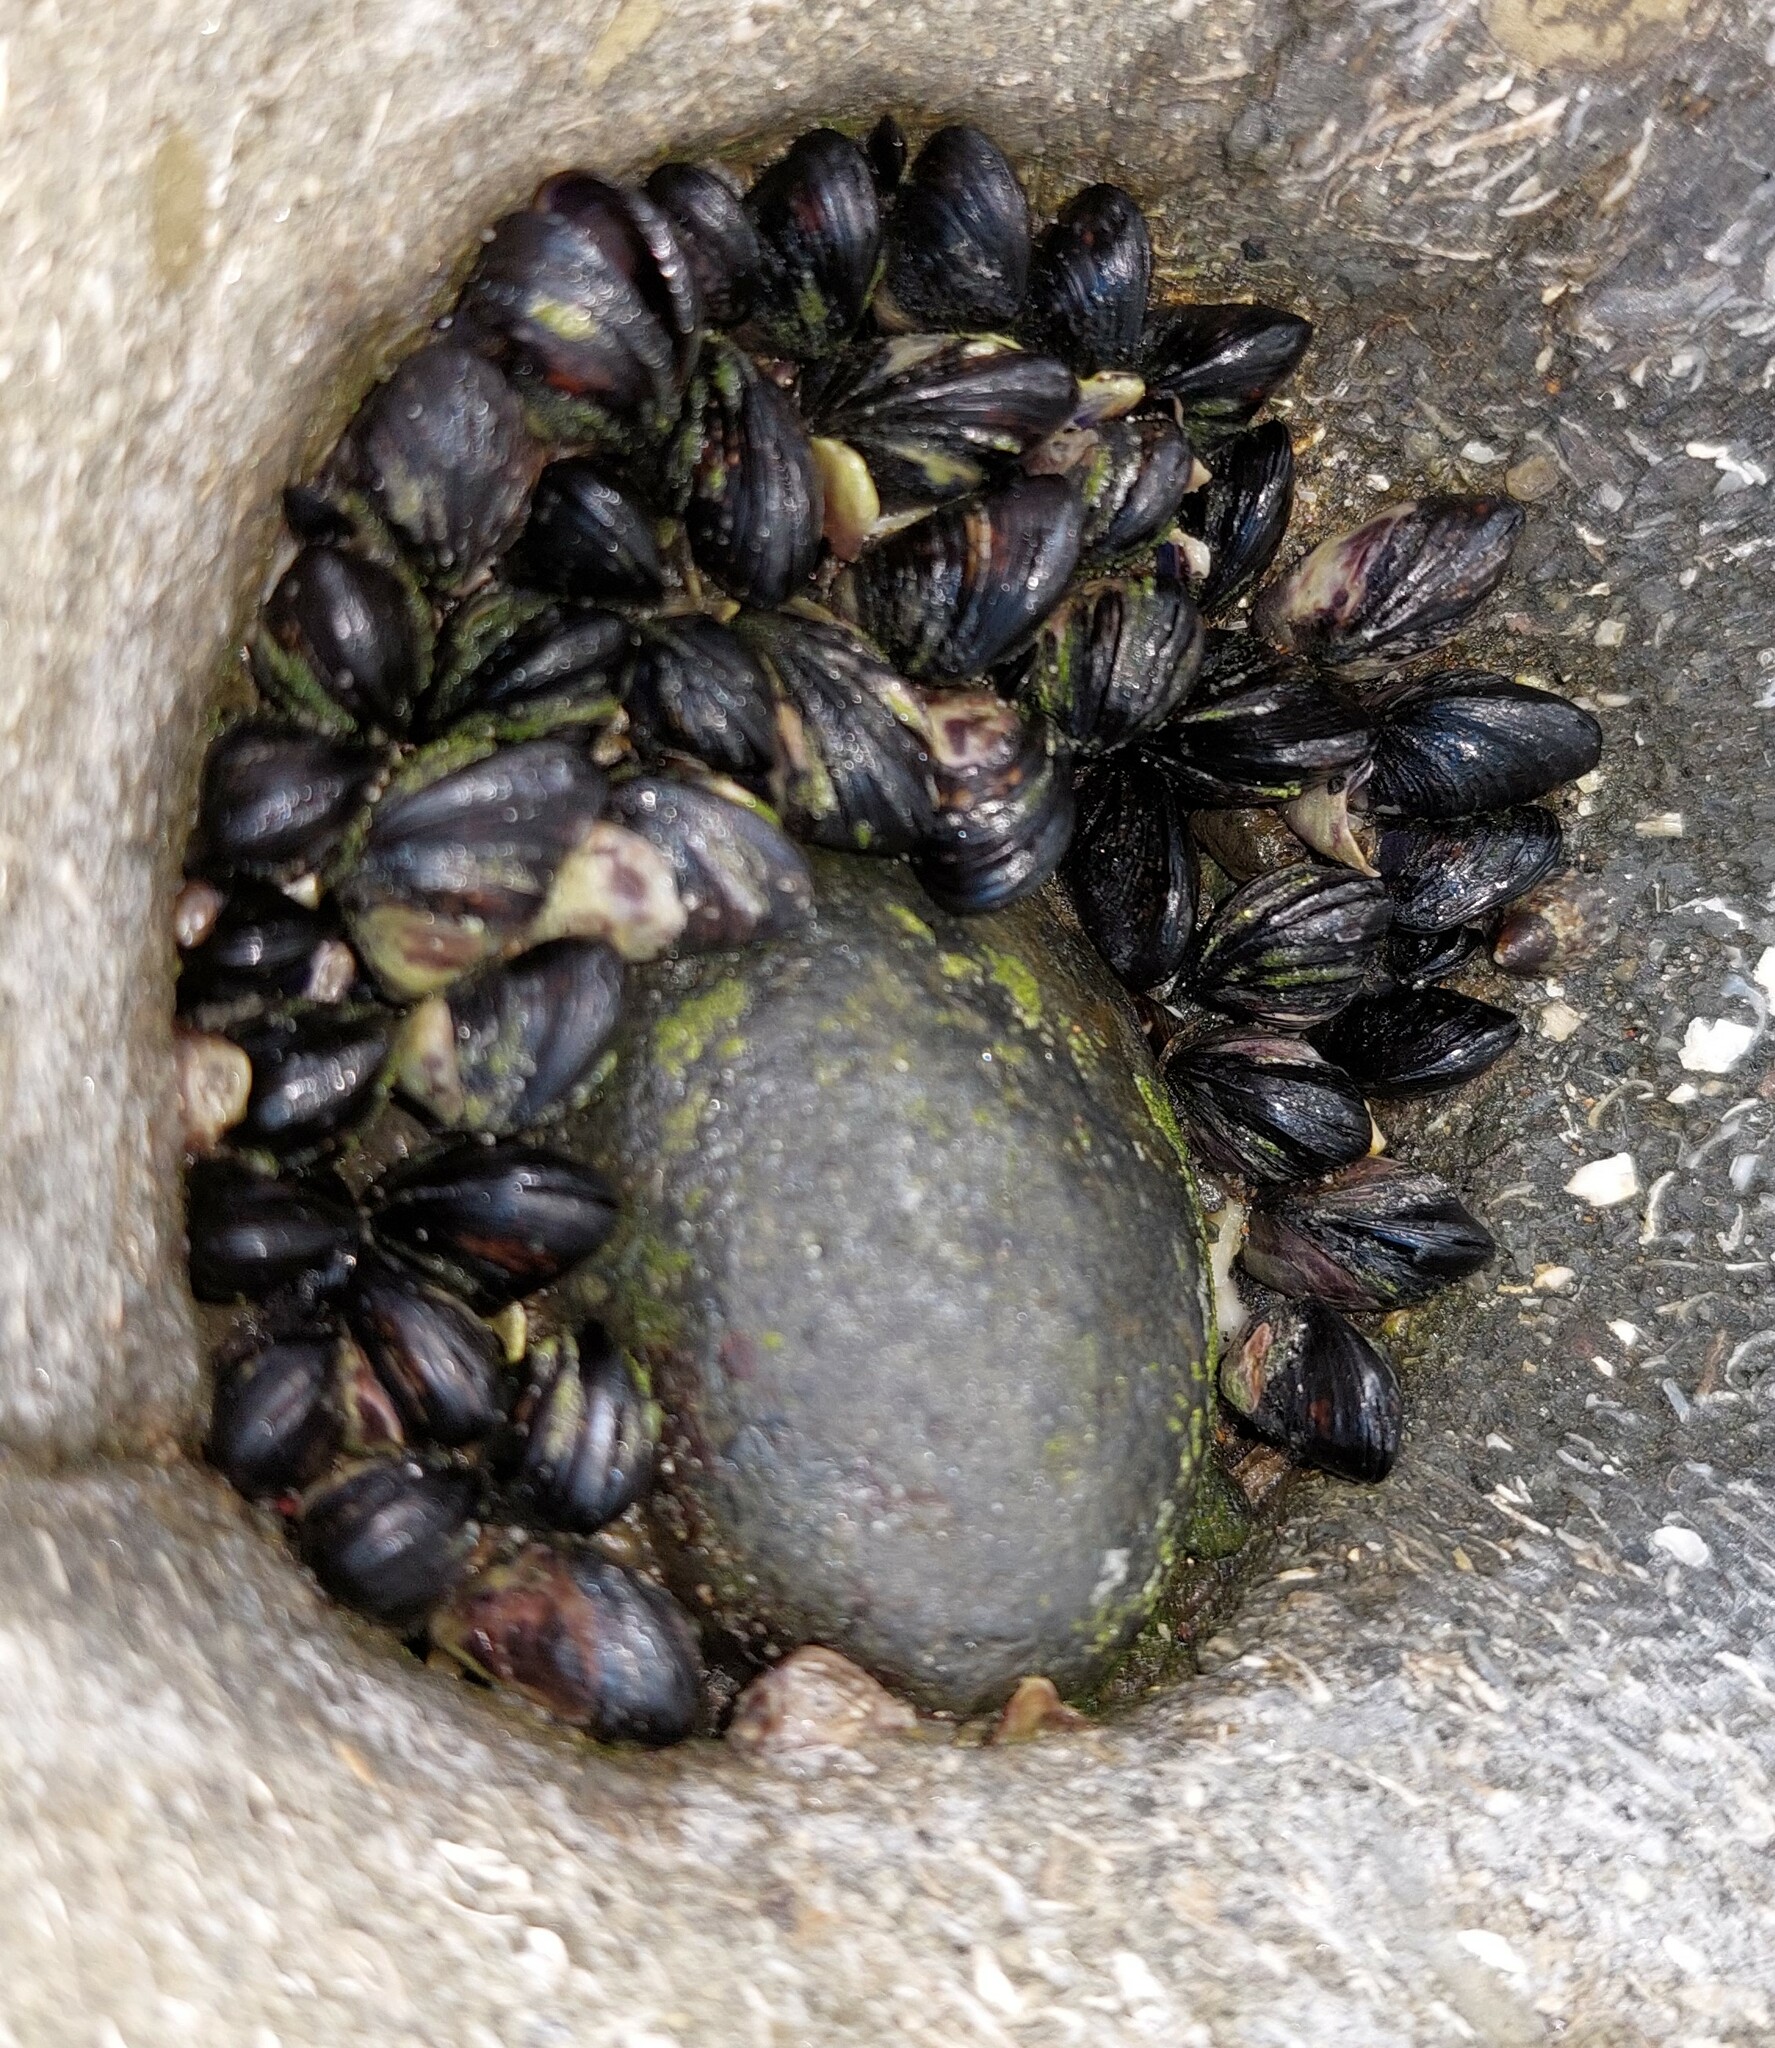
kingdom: Animalia
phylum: Mollusca
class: Bivalvia
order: Mytilida
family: Mytilidae
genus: Xenostrobus
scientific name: Xenostrobus neozelanicus
